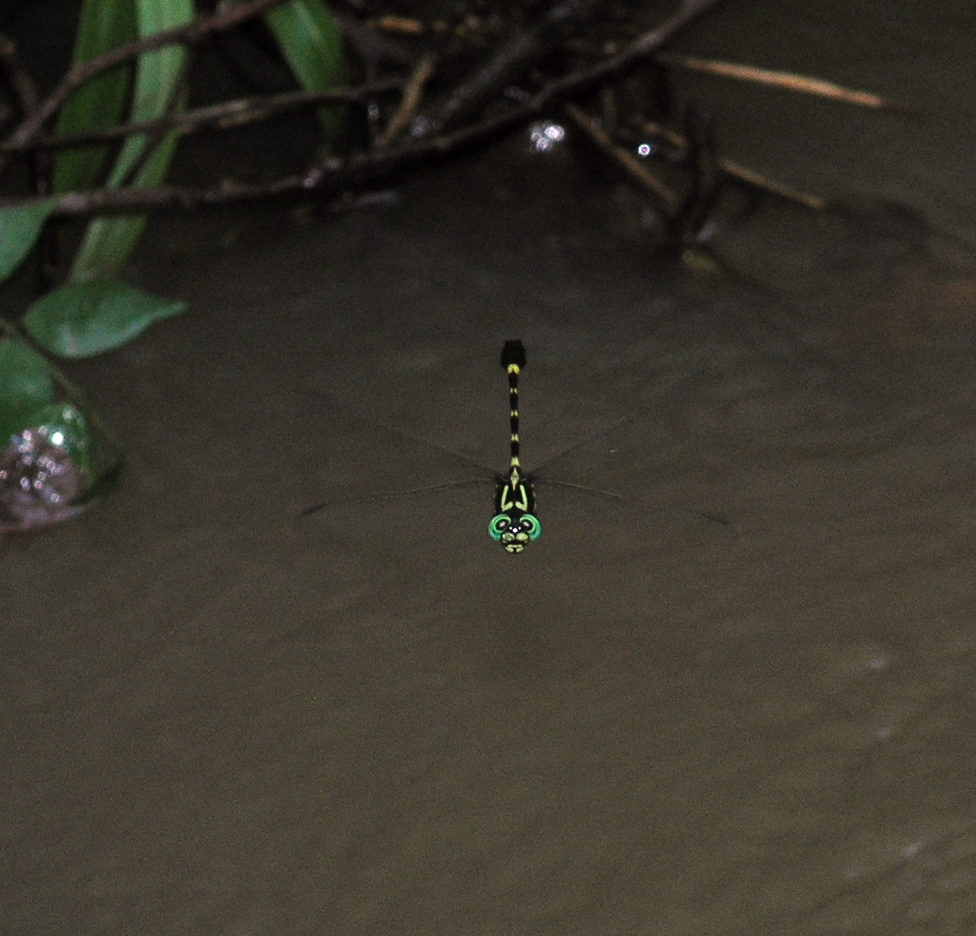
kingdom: Animalia
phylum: Arthropoda
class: Insecta
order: Odonata
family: Gomphidae
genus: Lamelligomphus
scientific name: Lamelligomphus castor
